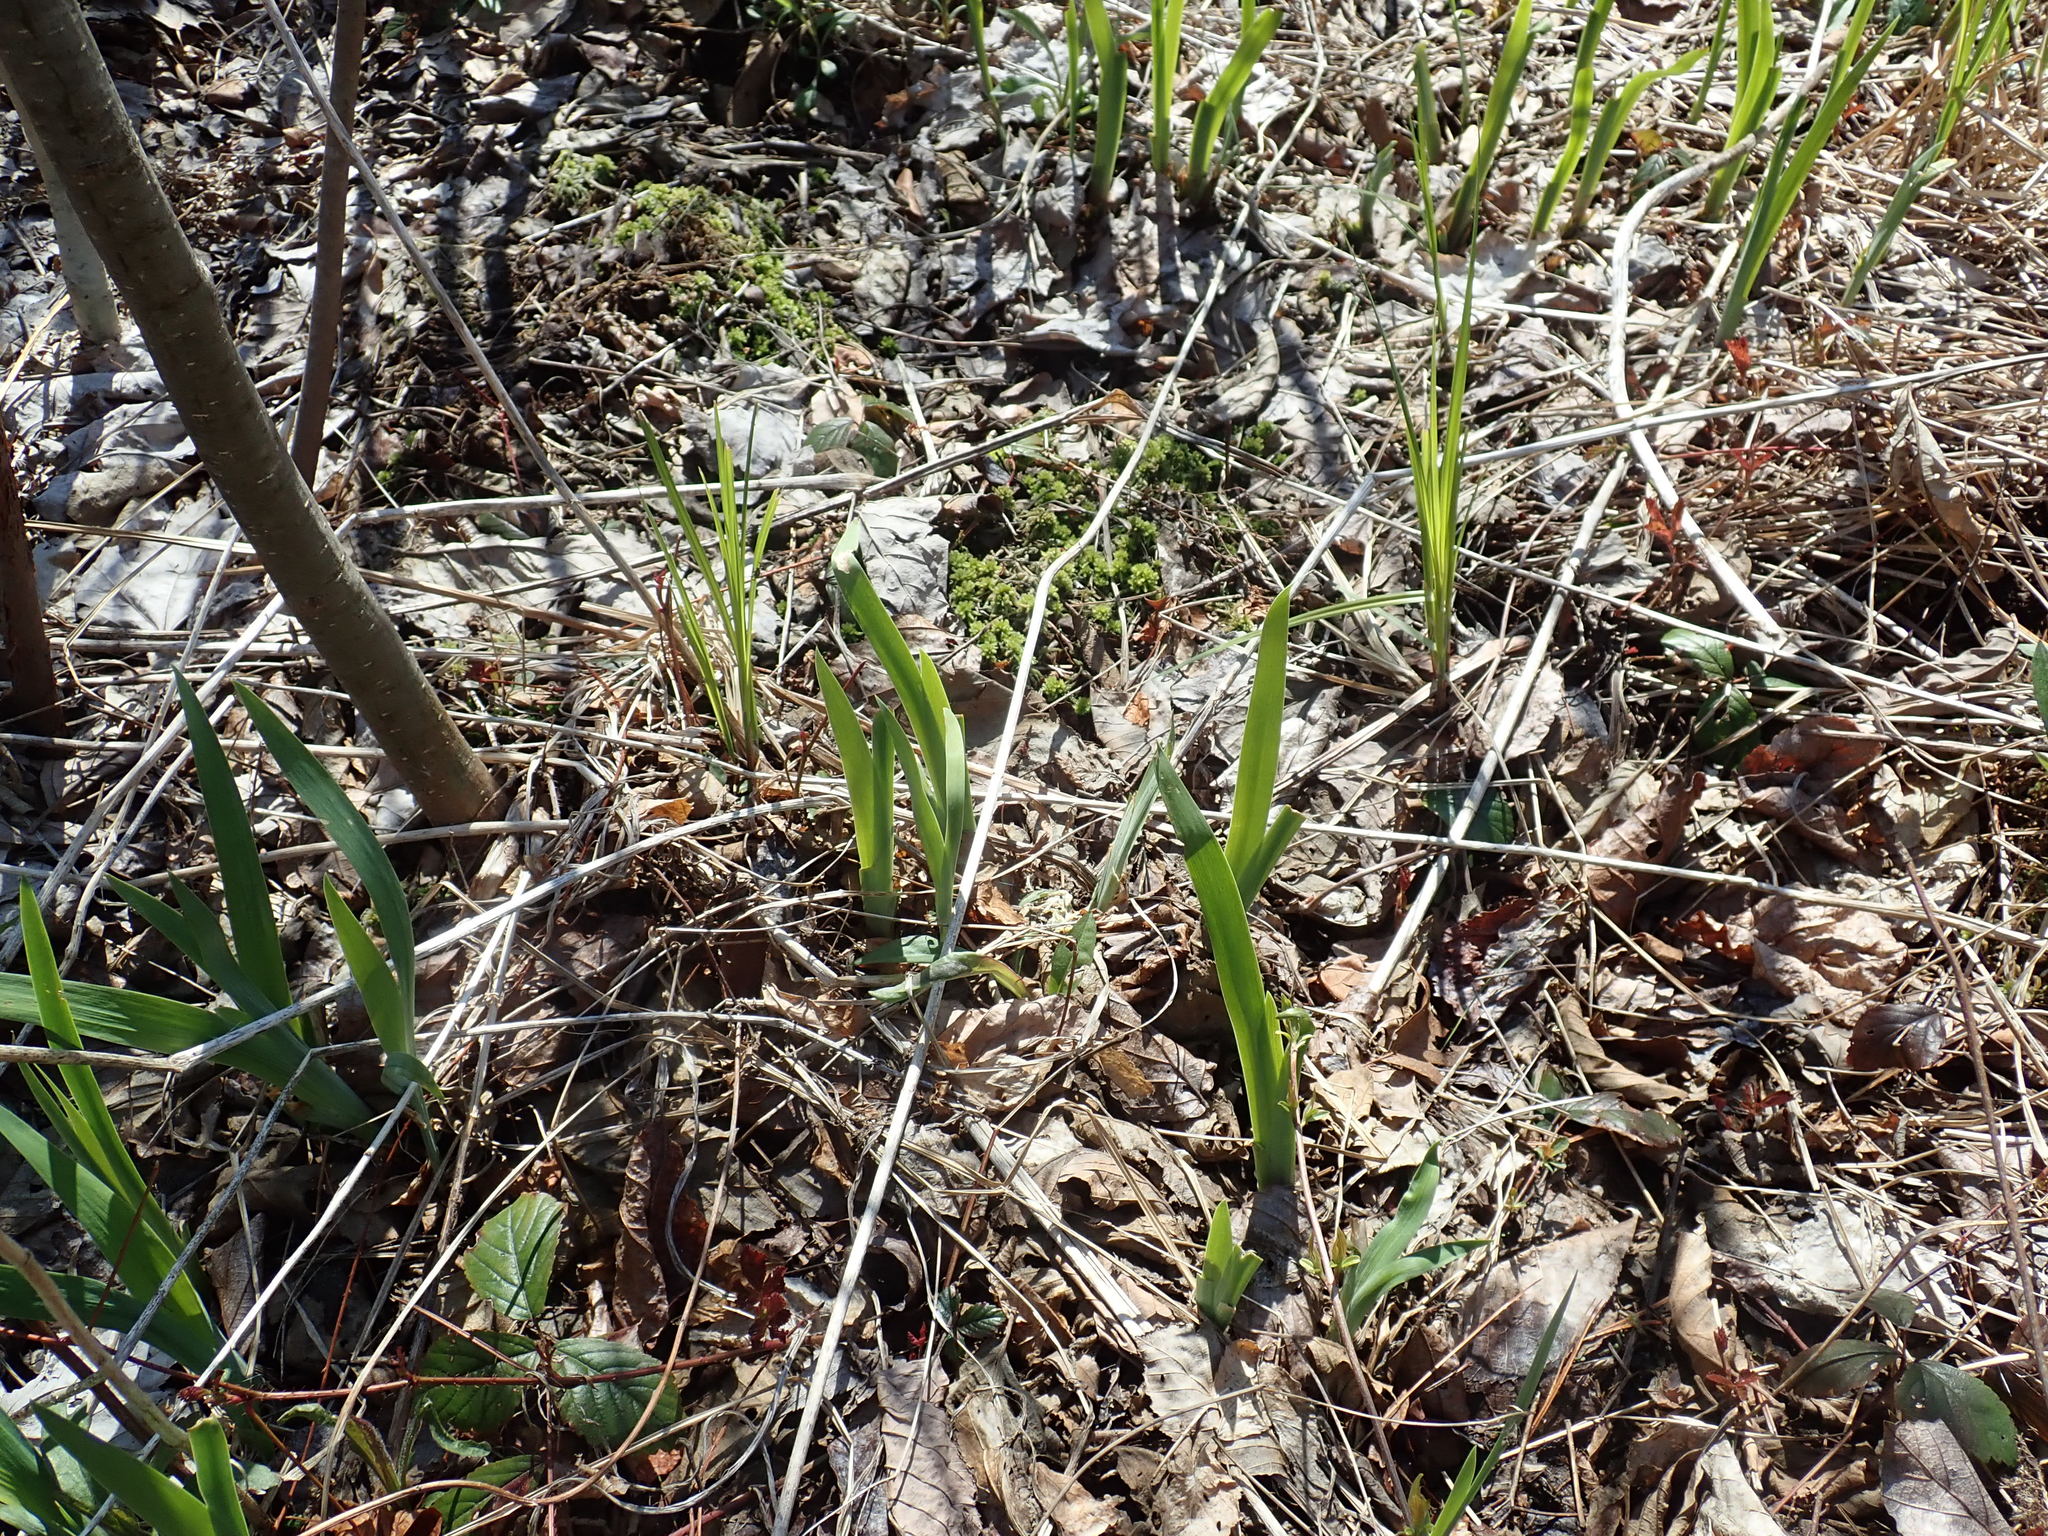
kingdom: Plantae
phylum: Tracheophyta
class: Liliopsida
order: Asparagales
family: Iridaceae
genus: Iris
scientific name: Iris
